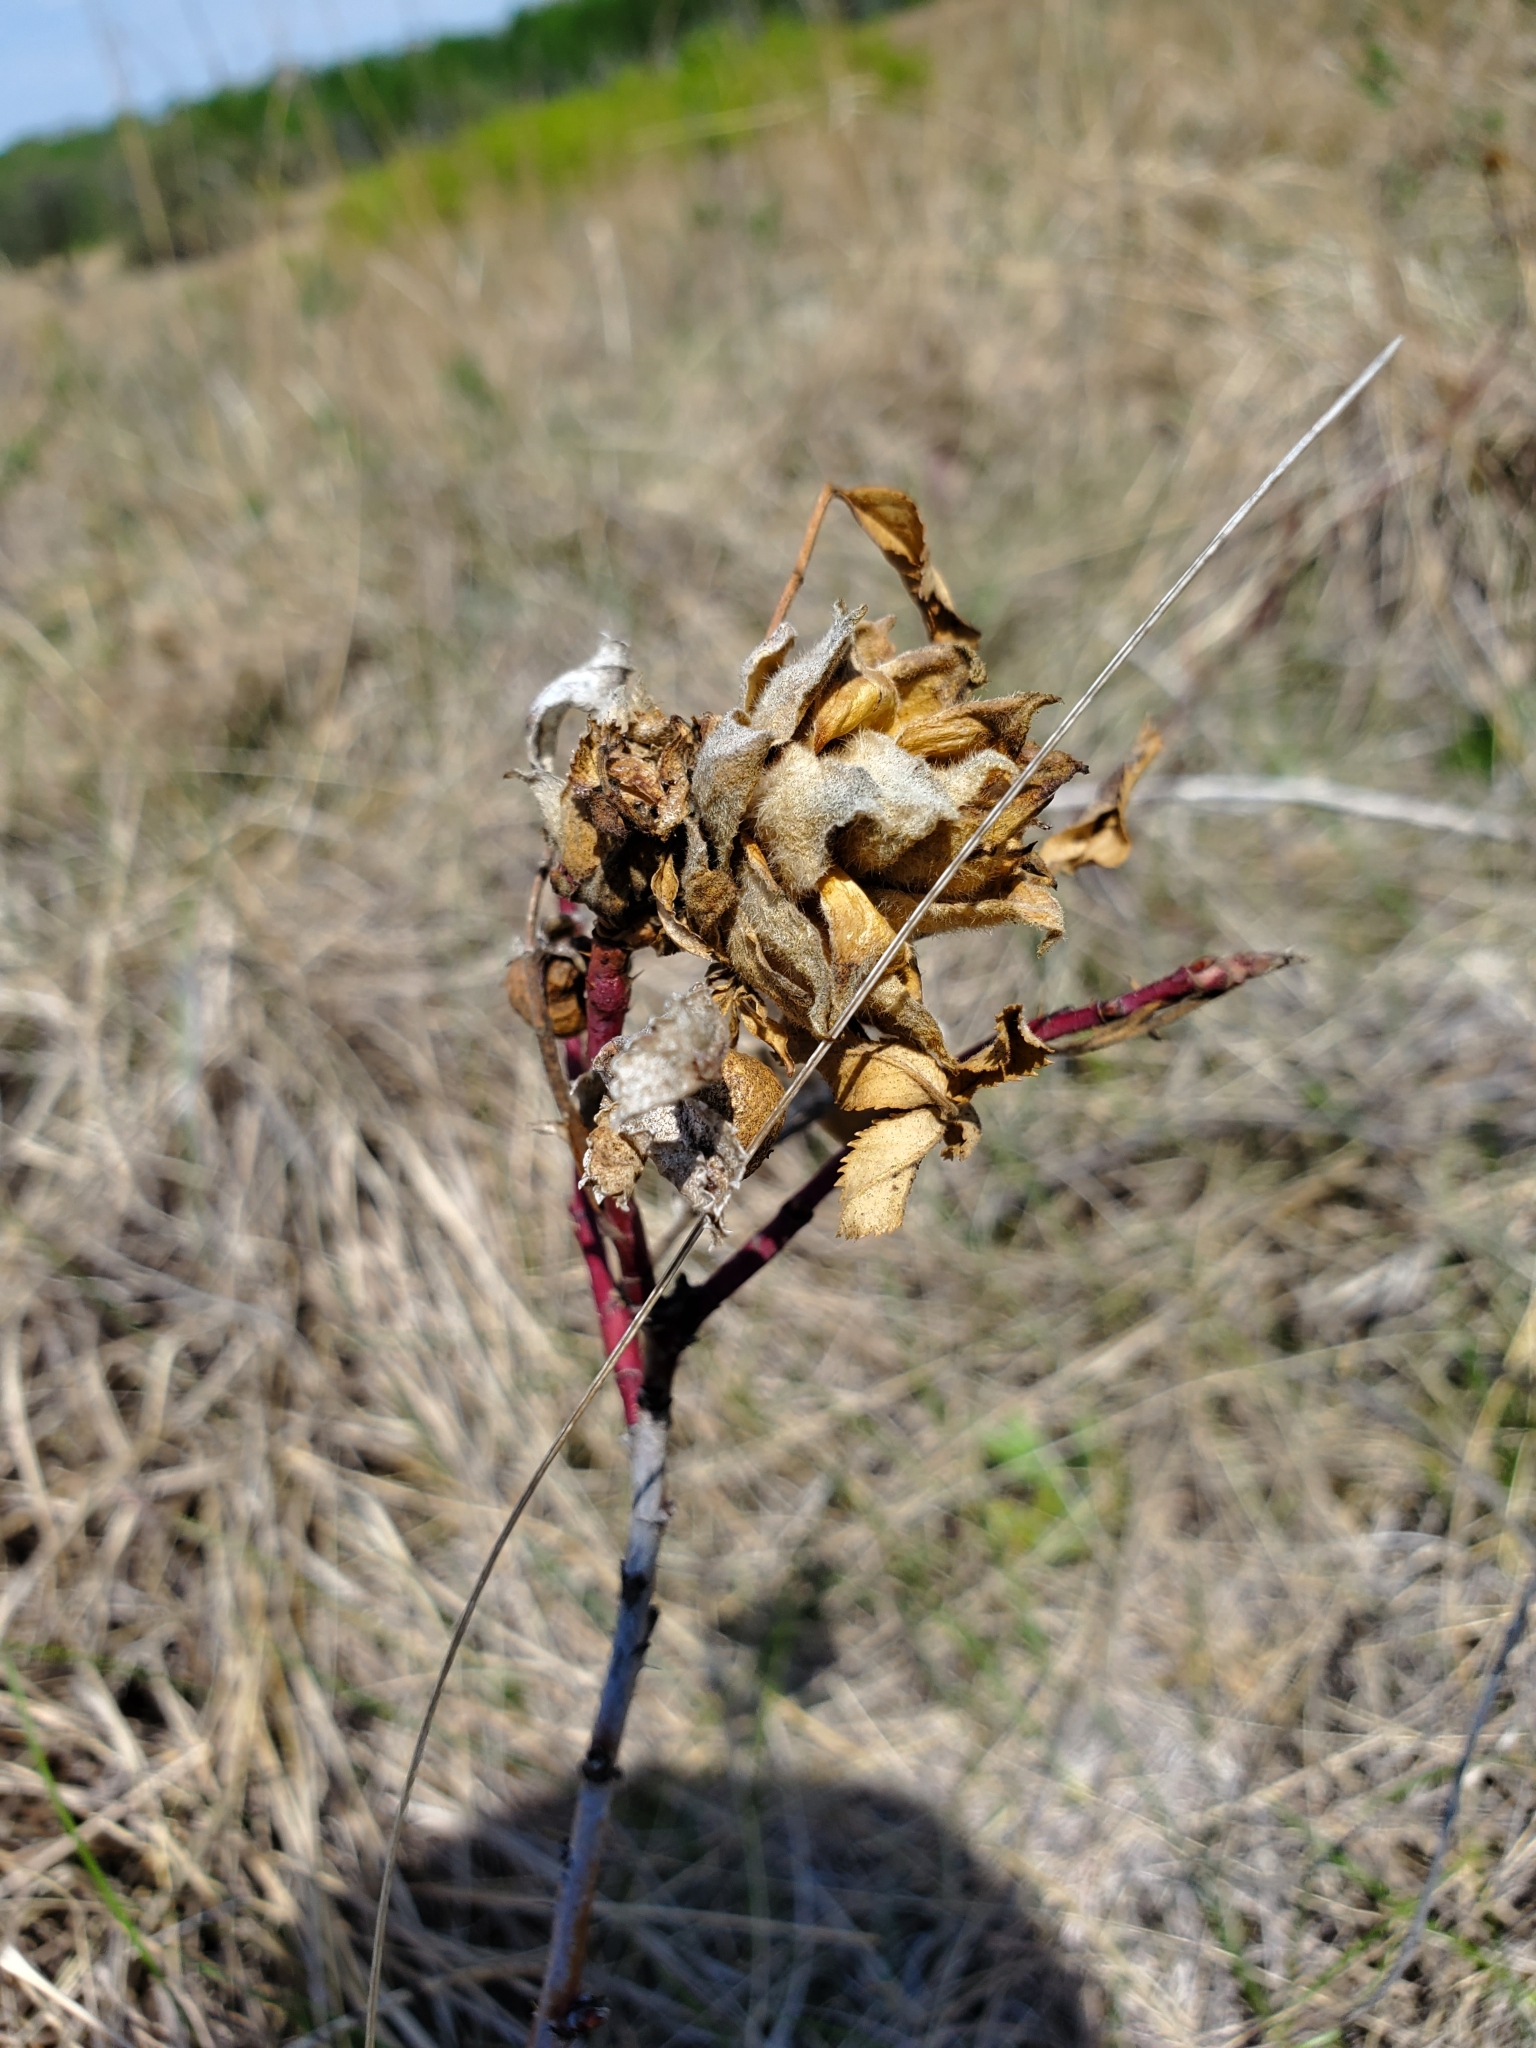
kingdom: Animalia
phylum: Arthropoda
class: Insecta
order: Diptera
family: Cecidomyiidae
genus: Rabdophaga
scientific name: Rabdophaga rosacea
